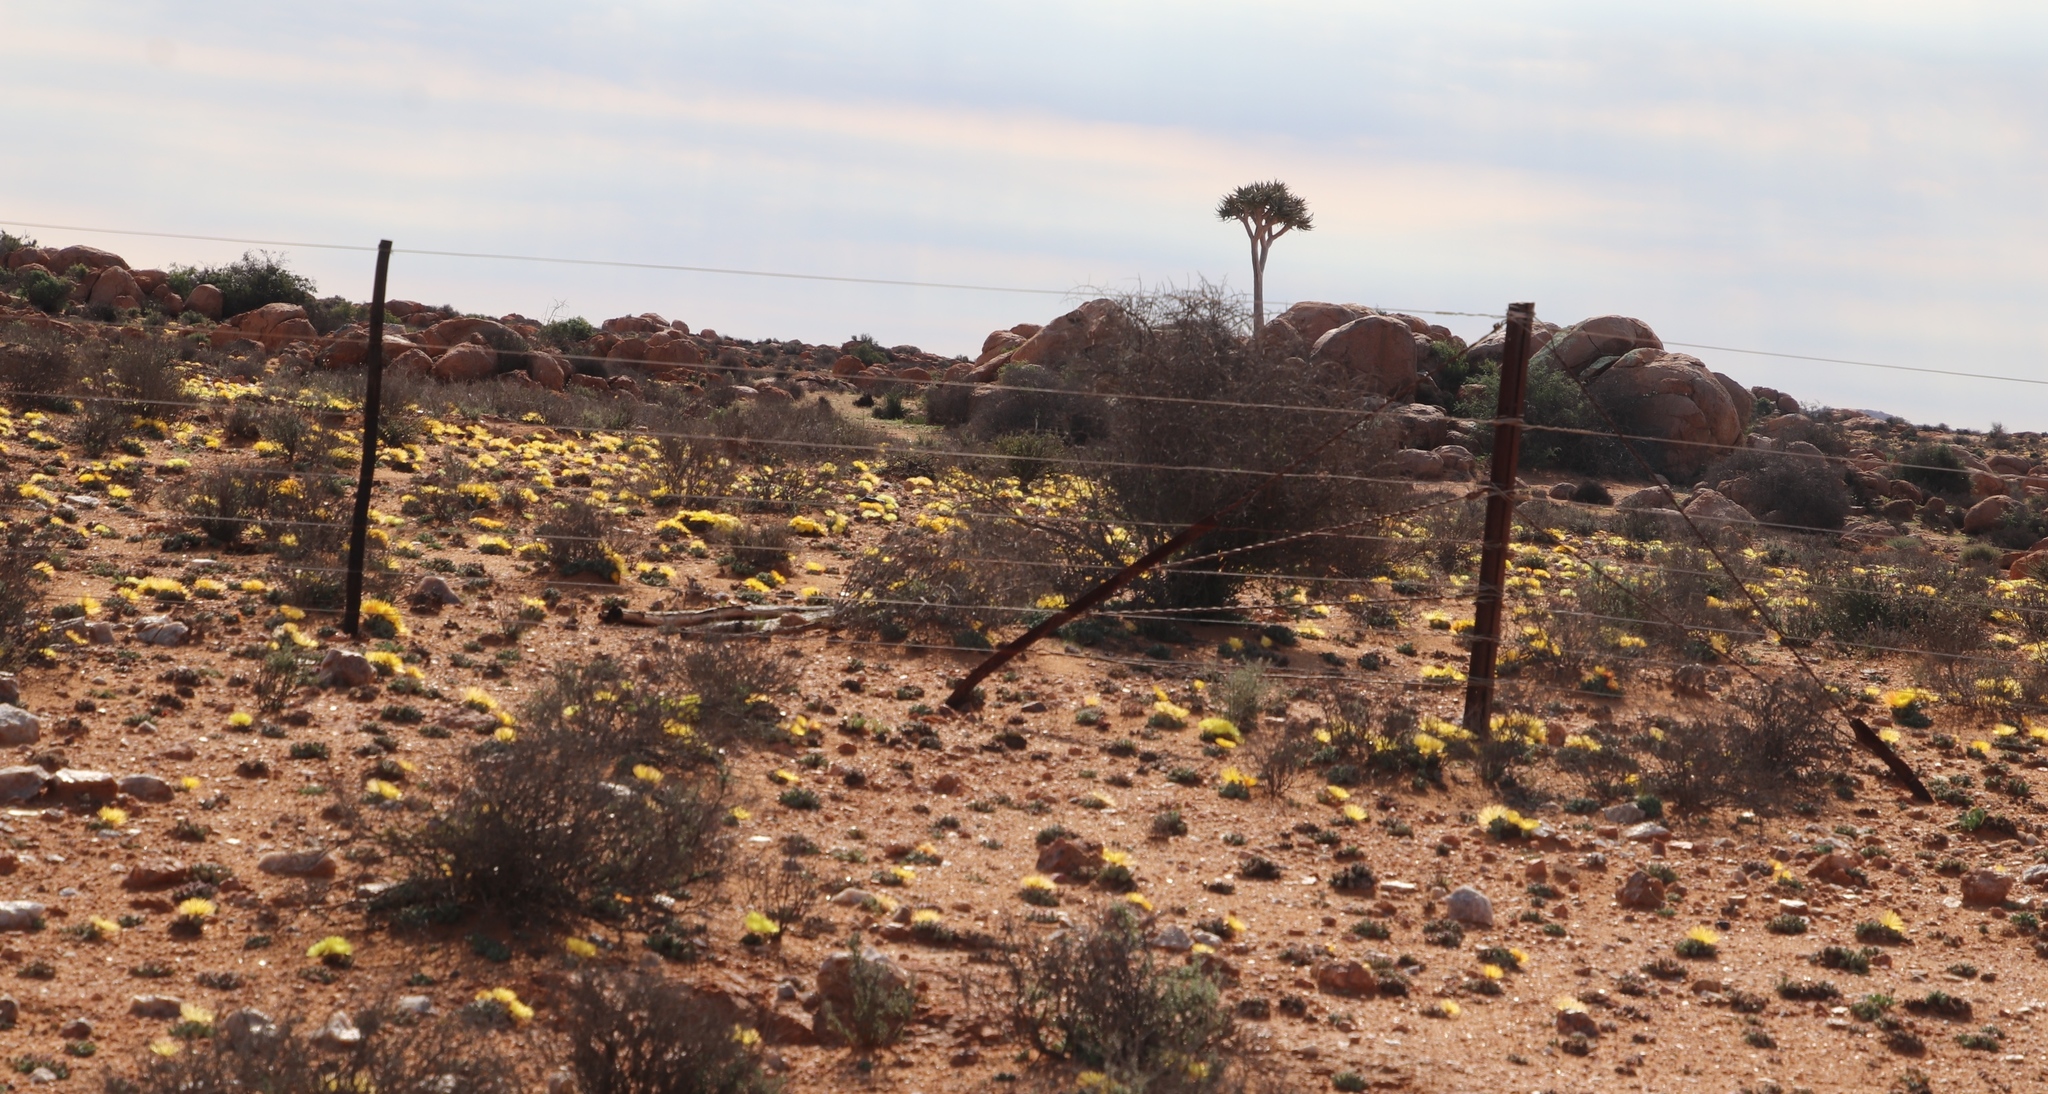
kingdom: Plantae
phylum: Tracheophyta
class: Liliopsida
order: Asparagales
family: Asphodelaceae
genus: Aloidendron
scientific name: Aloidendron dichotomum
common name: Quiver tree
